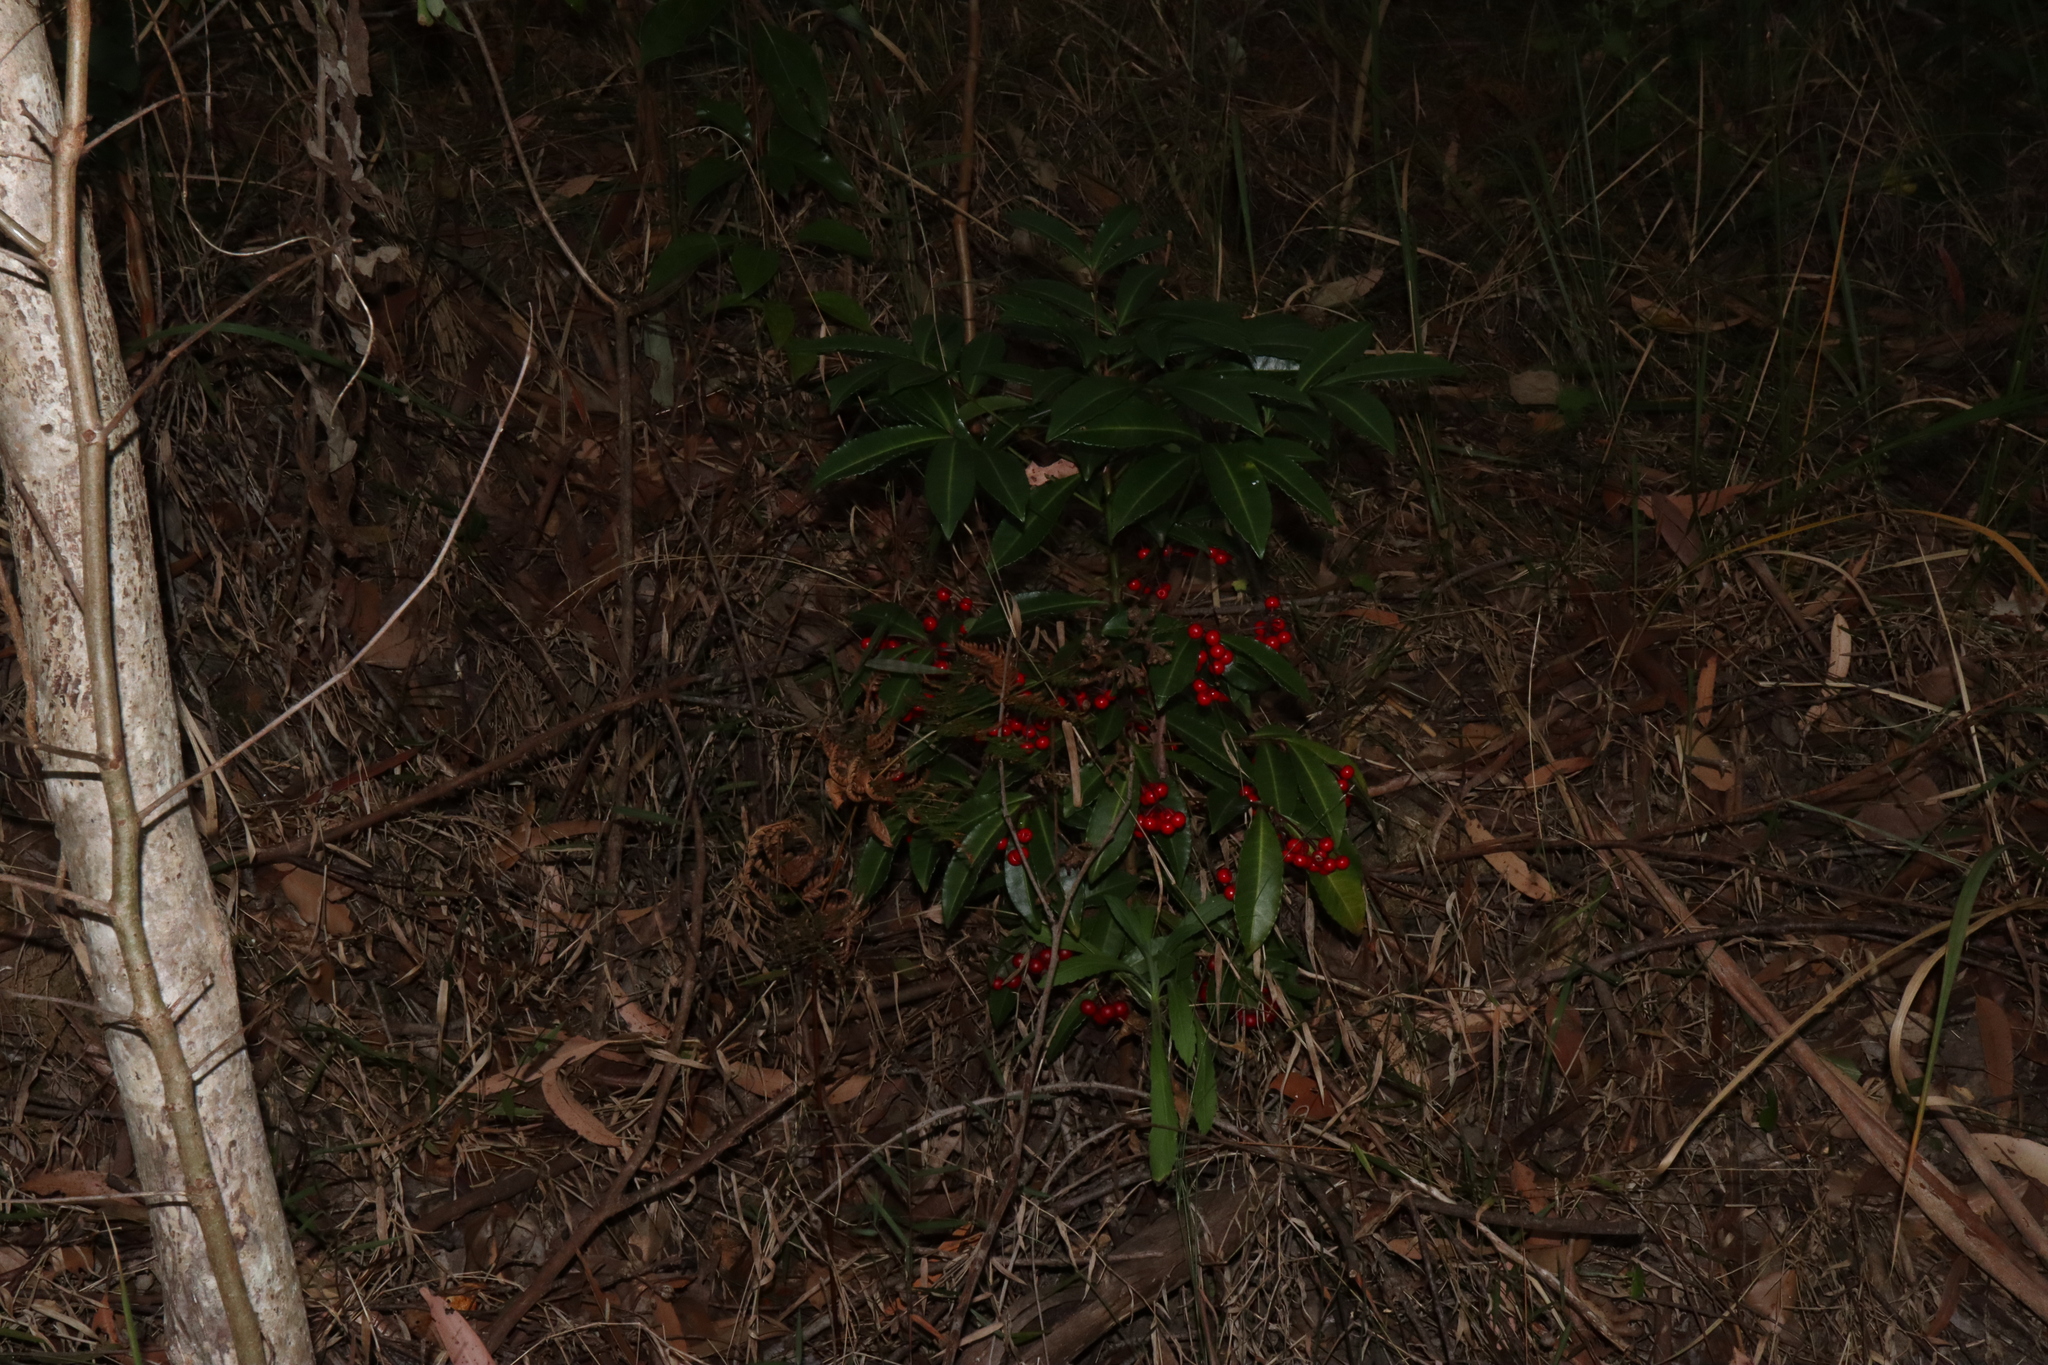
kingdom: Plantae
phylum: Tracheophyta
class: Magnoliopsida
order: Ericales
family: Primulaceae
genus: Ardisia
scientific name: Ardisia crenata
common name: Hen's eyes
